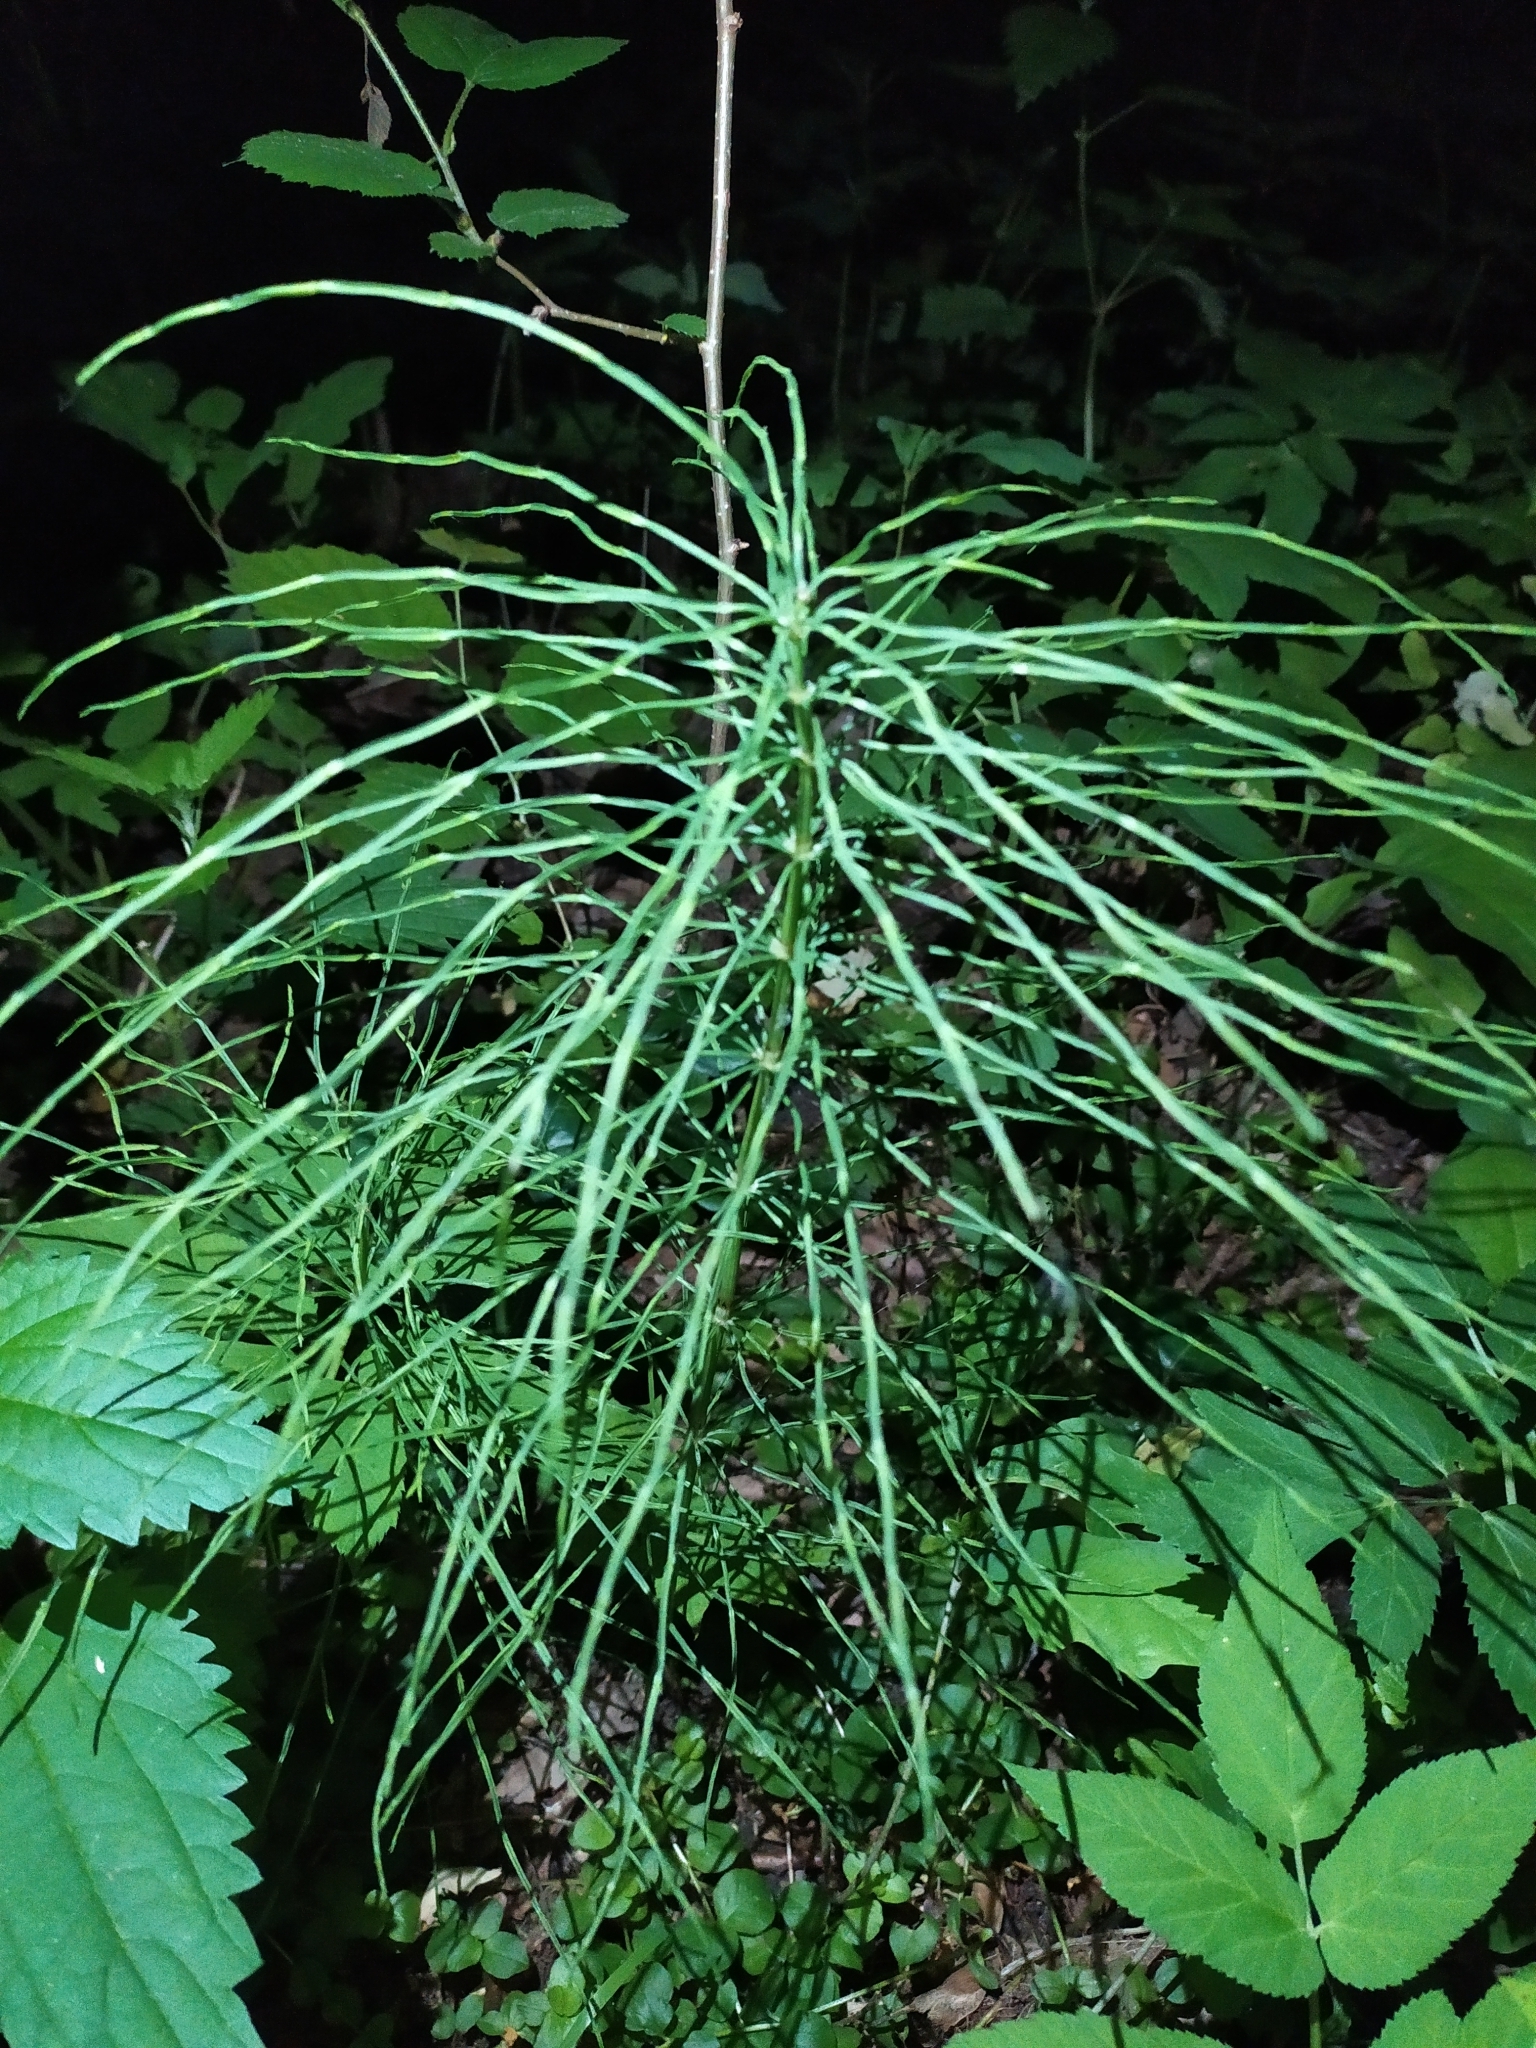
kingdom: Plantae
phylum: Tracheophyta
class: Polypodiopsida
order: Equisetales
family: Equisetaceae
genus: Equisetum
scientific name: Equisetum pratense
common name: Meadow horsetail
